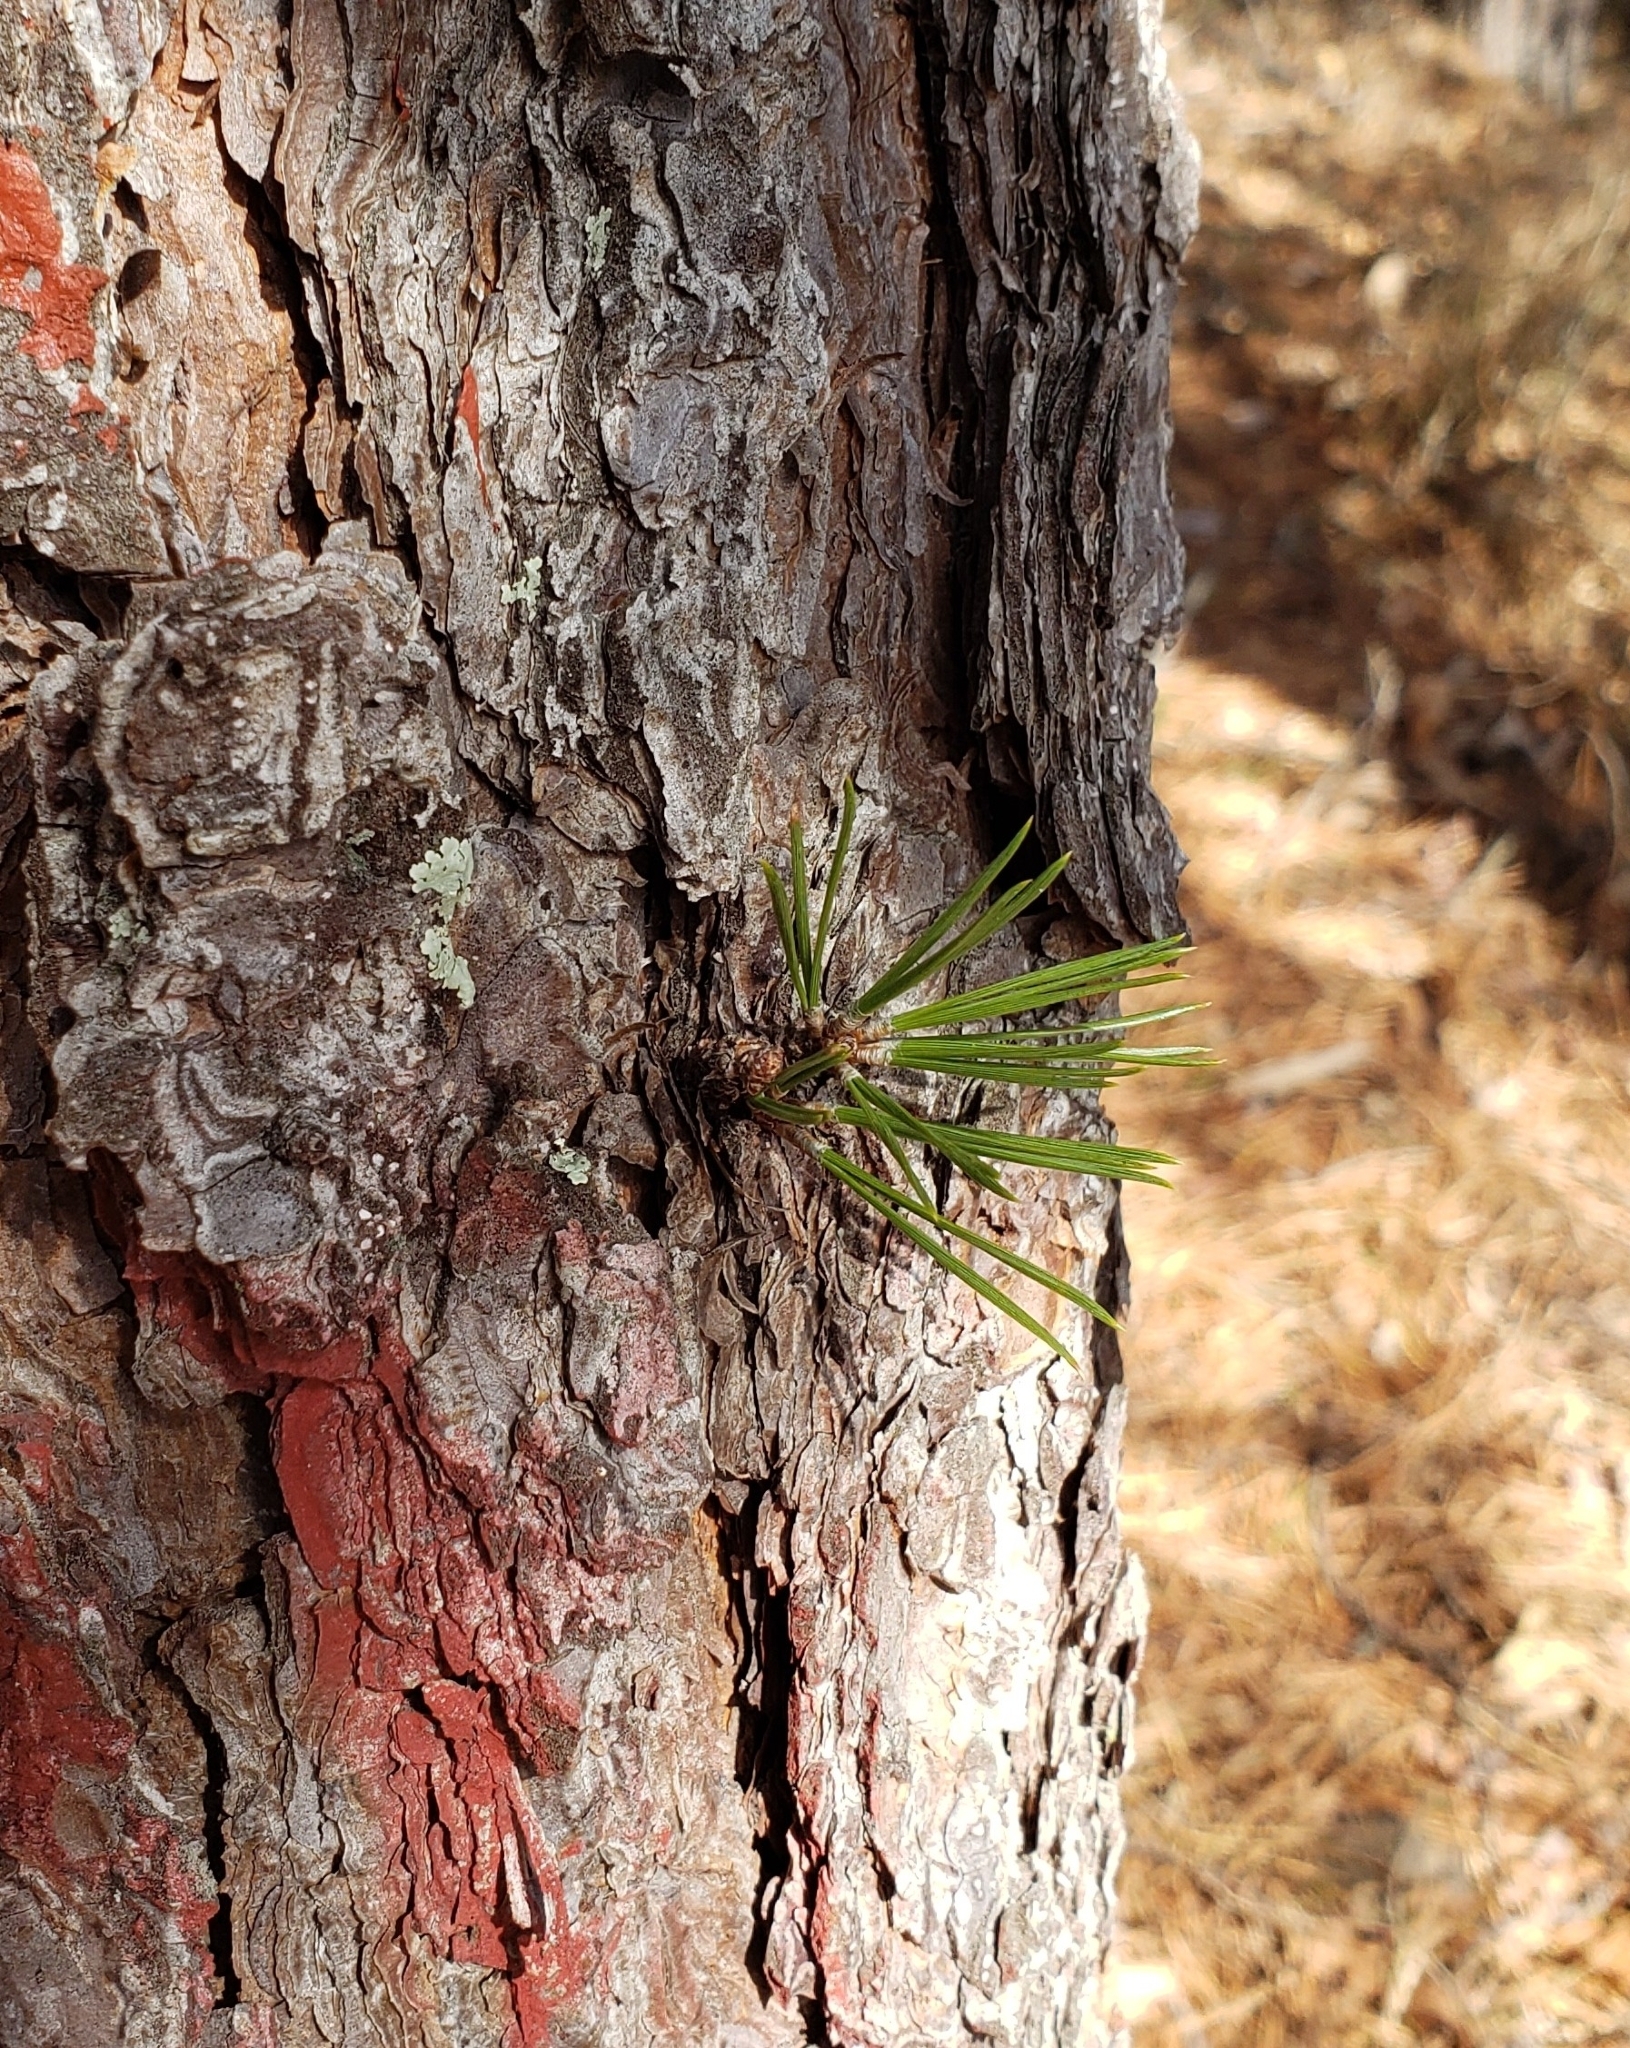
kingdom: Plantae
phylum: Tracheophyta
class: Pinopsida
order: Pinales
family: Pinaceae
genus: Pinus
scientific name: Pinus rigida
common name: Pitch pine
